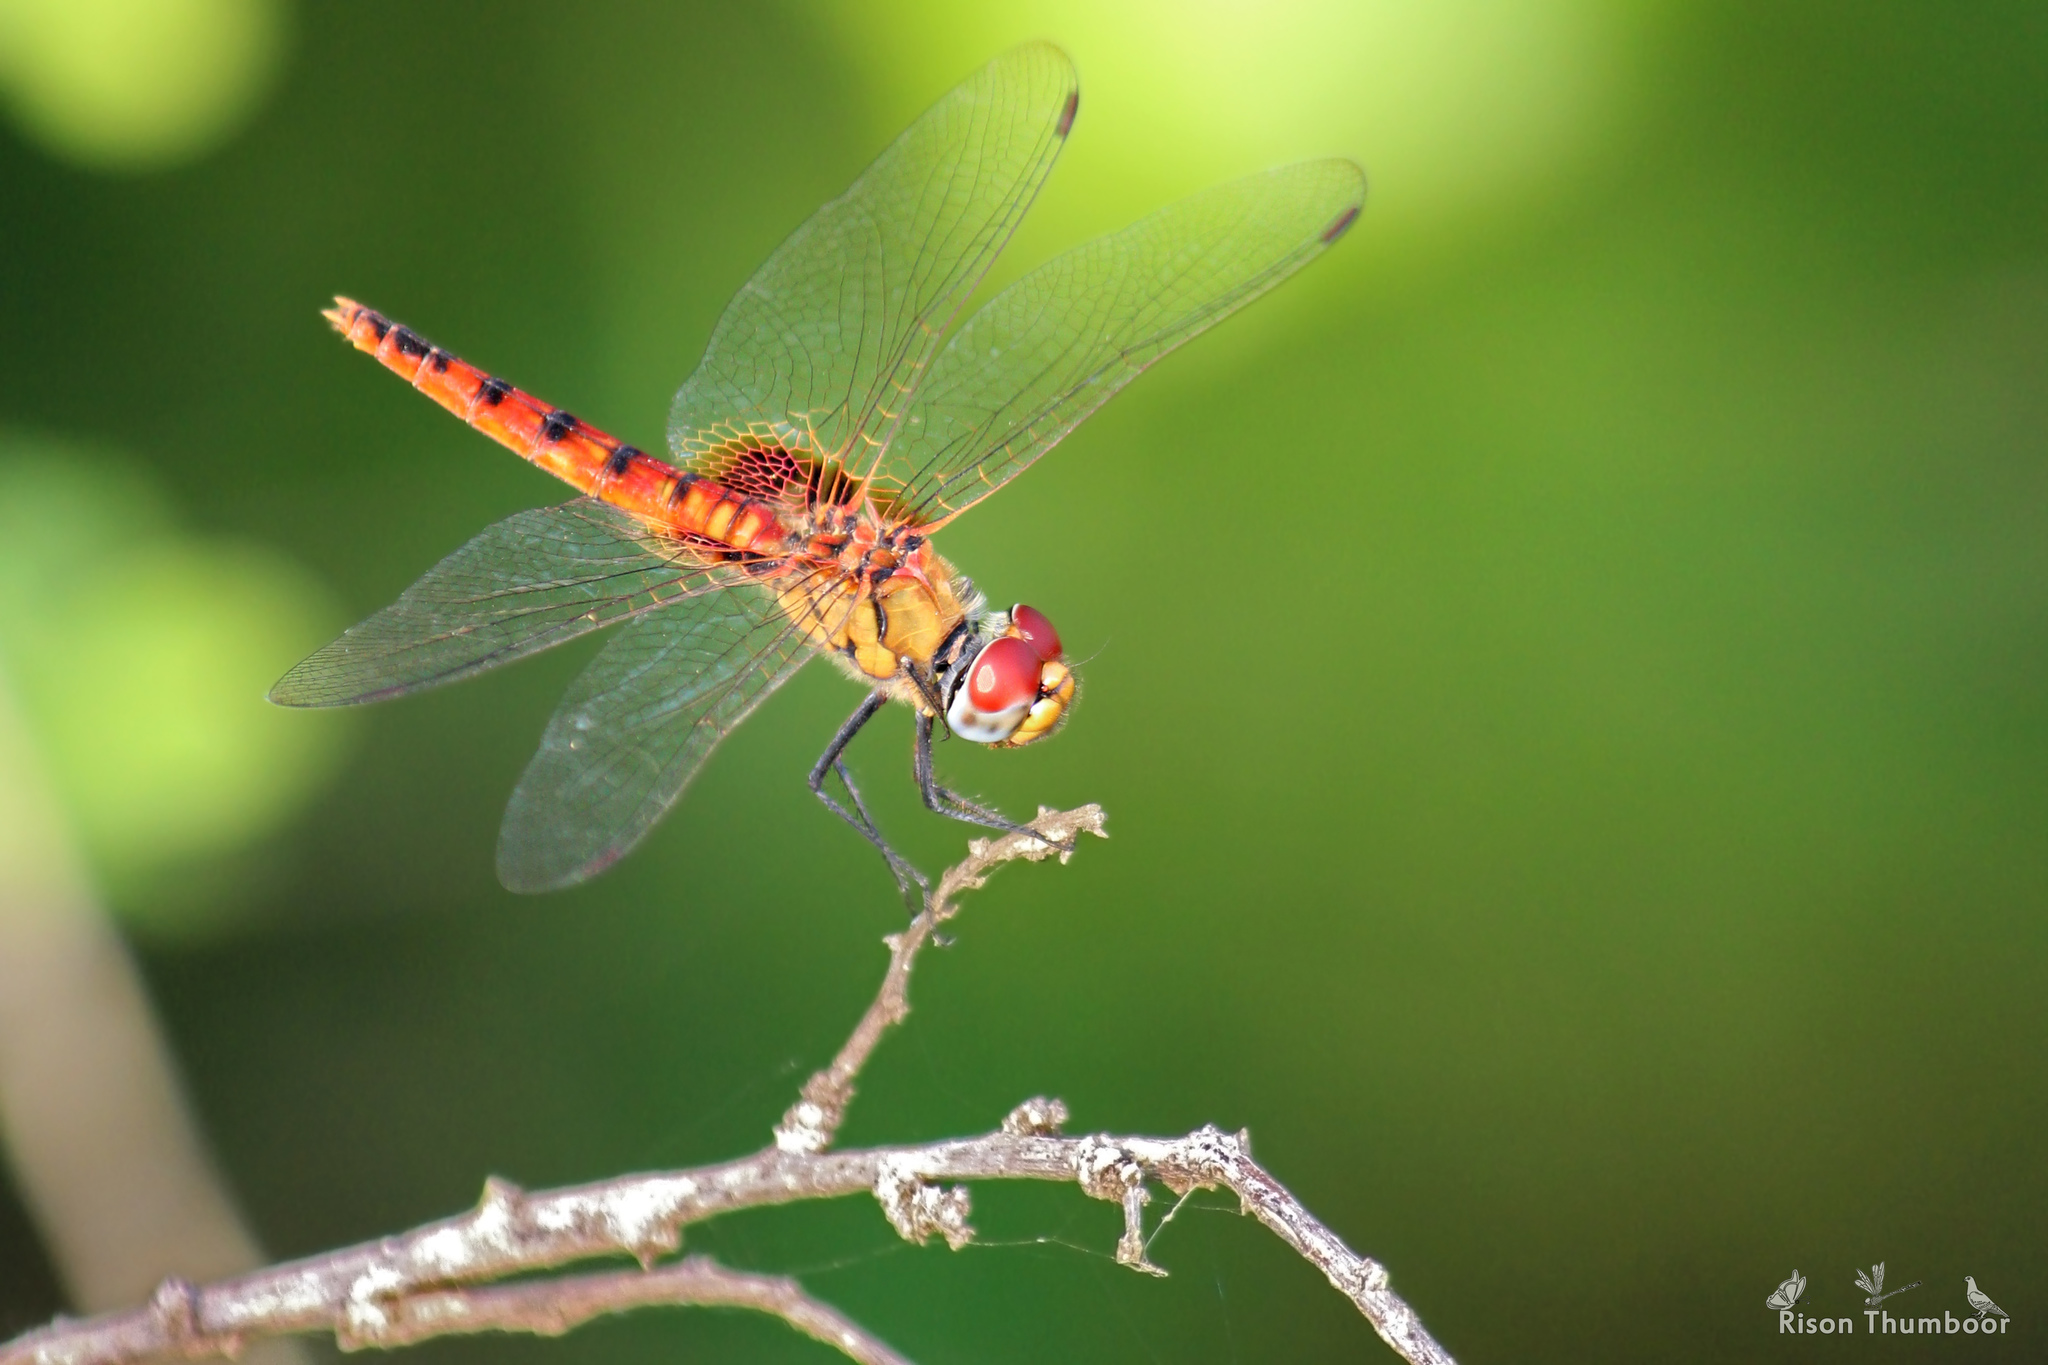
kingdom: Animalia
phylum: Arthropoda
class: Insecta
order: Odonata
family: Libellulidae
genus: Urothemis
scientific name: Urothemis signata
